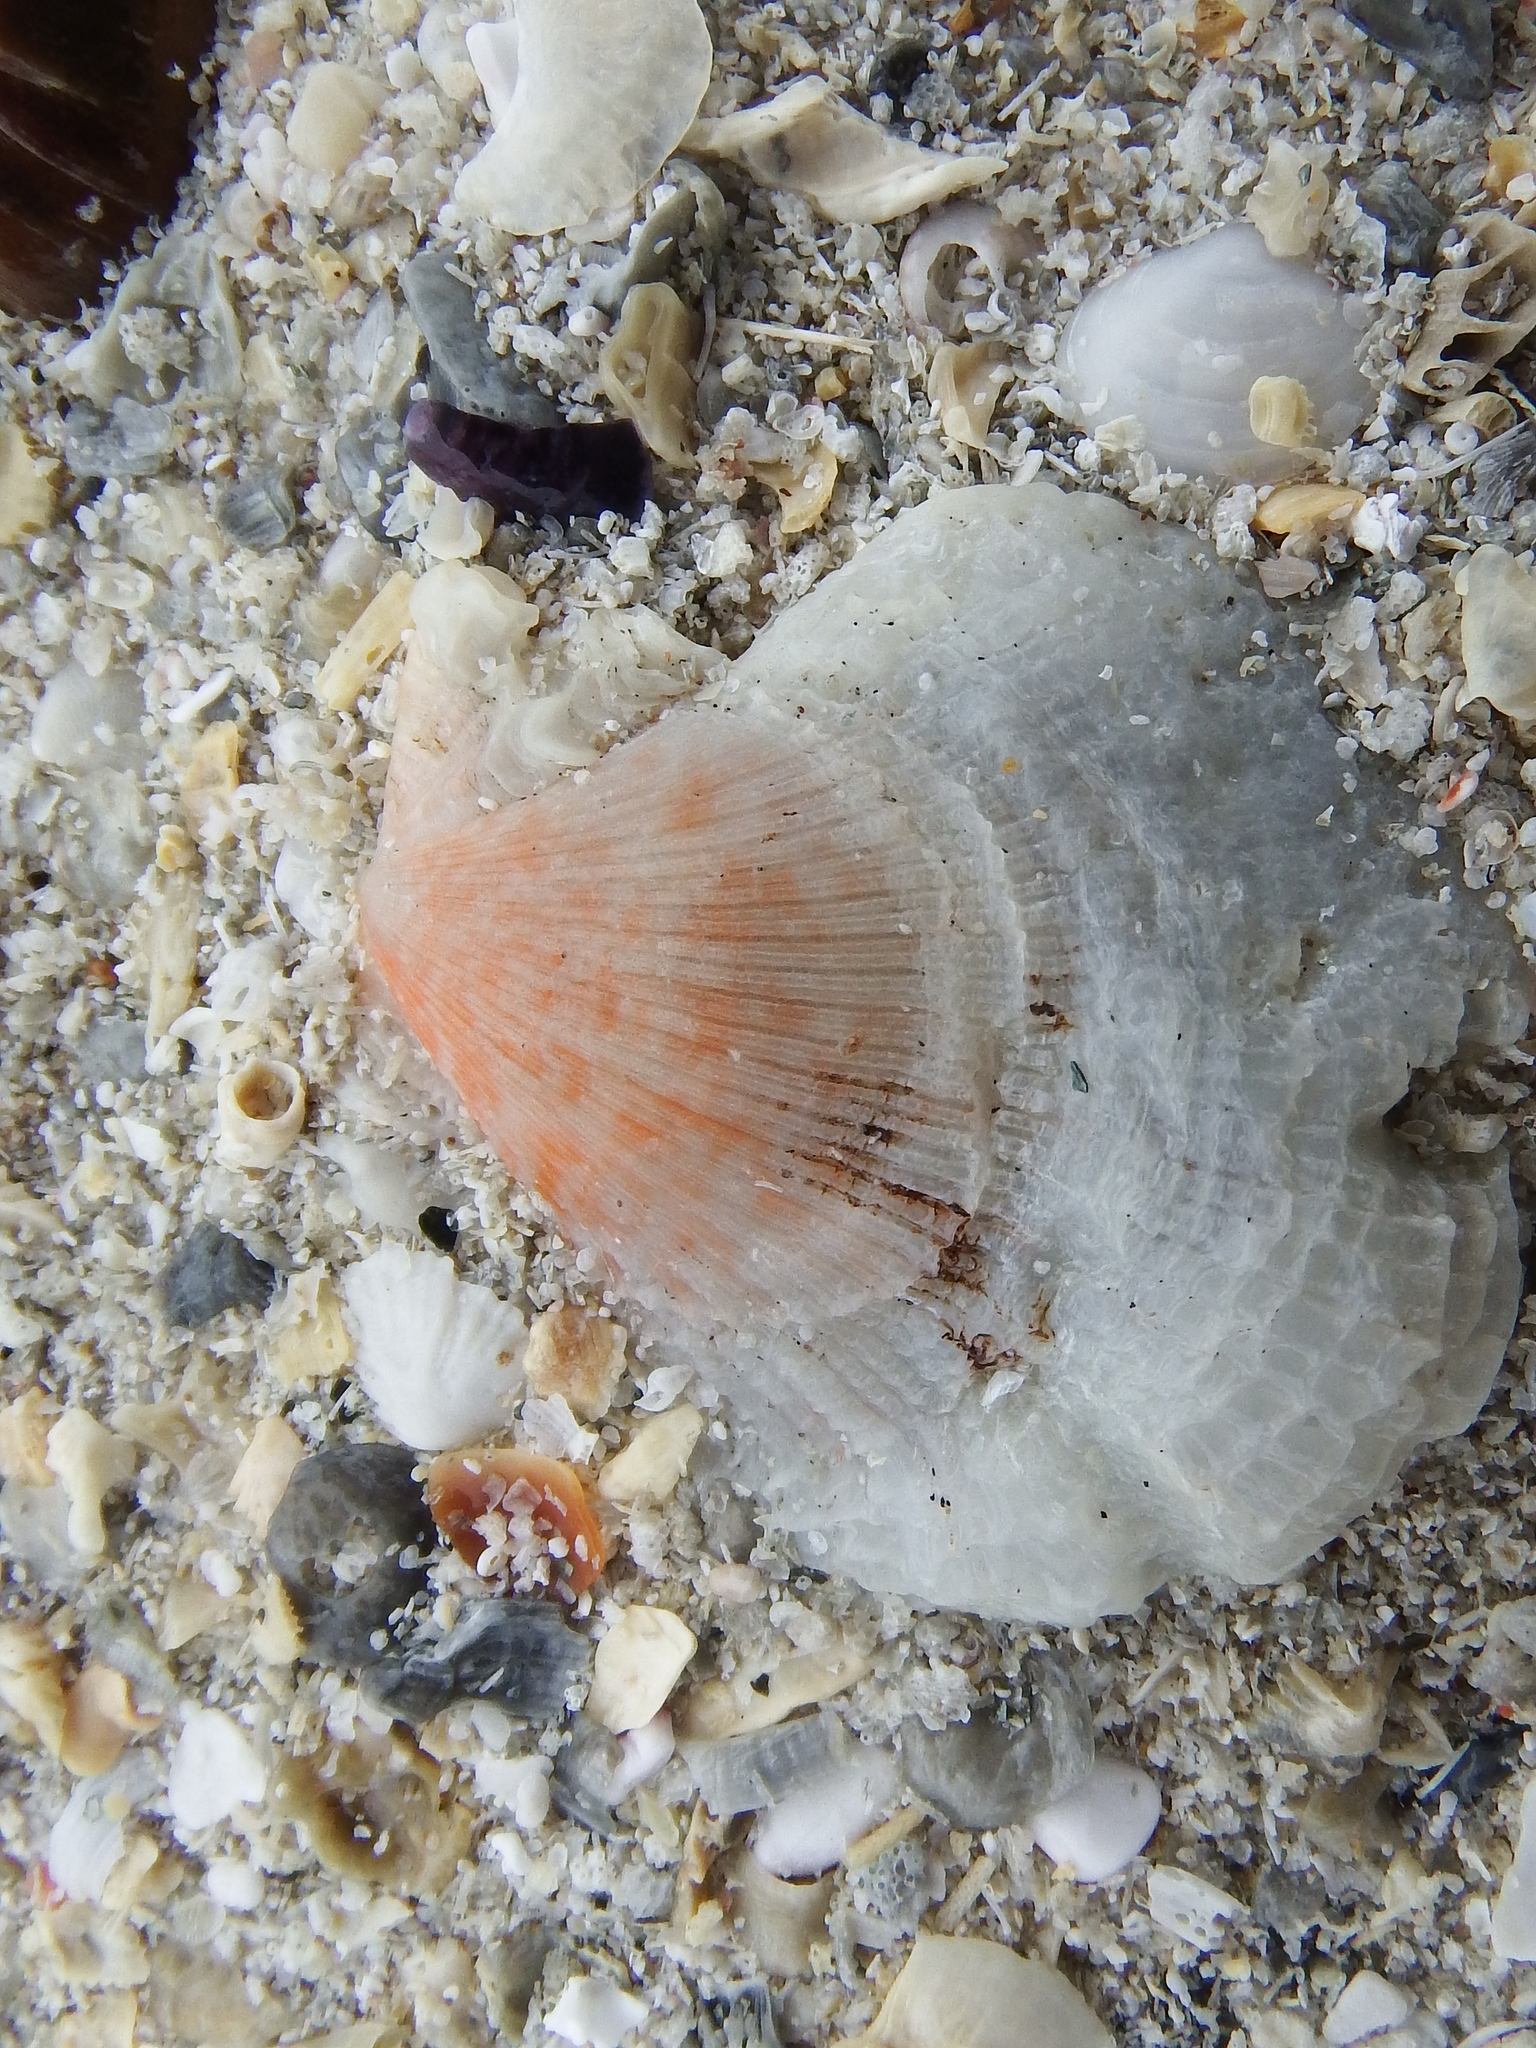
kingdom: Animalia
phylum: Mollusca
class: Bivalvia
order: Pectinida
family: Pectinidae
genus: Talochlamys
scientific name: Talochlamys pusio
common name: Hunchback scallop
